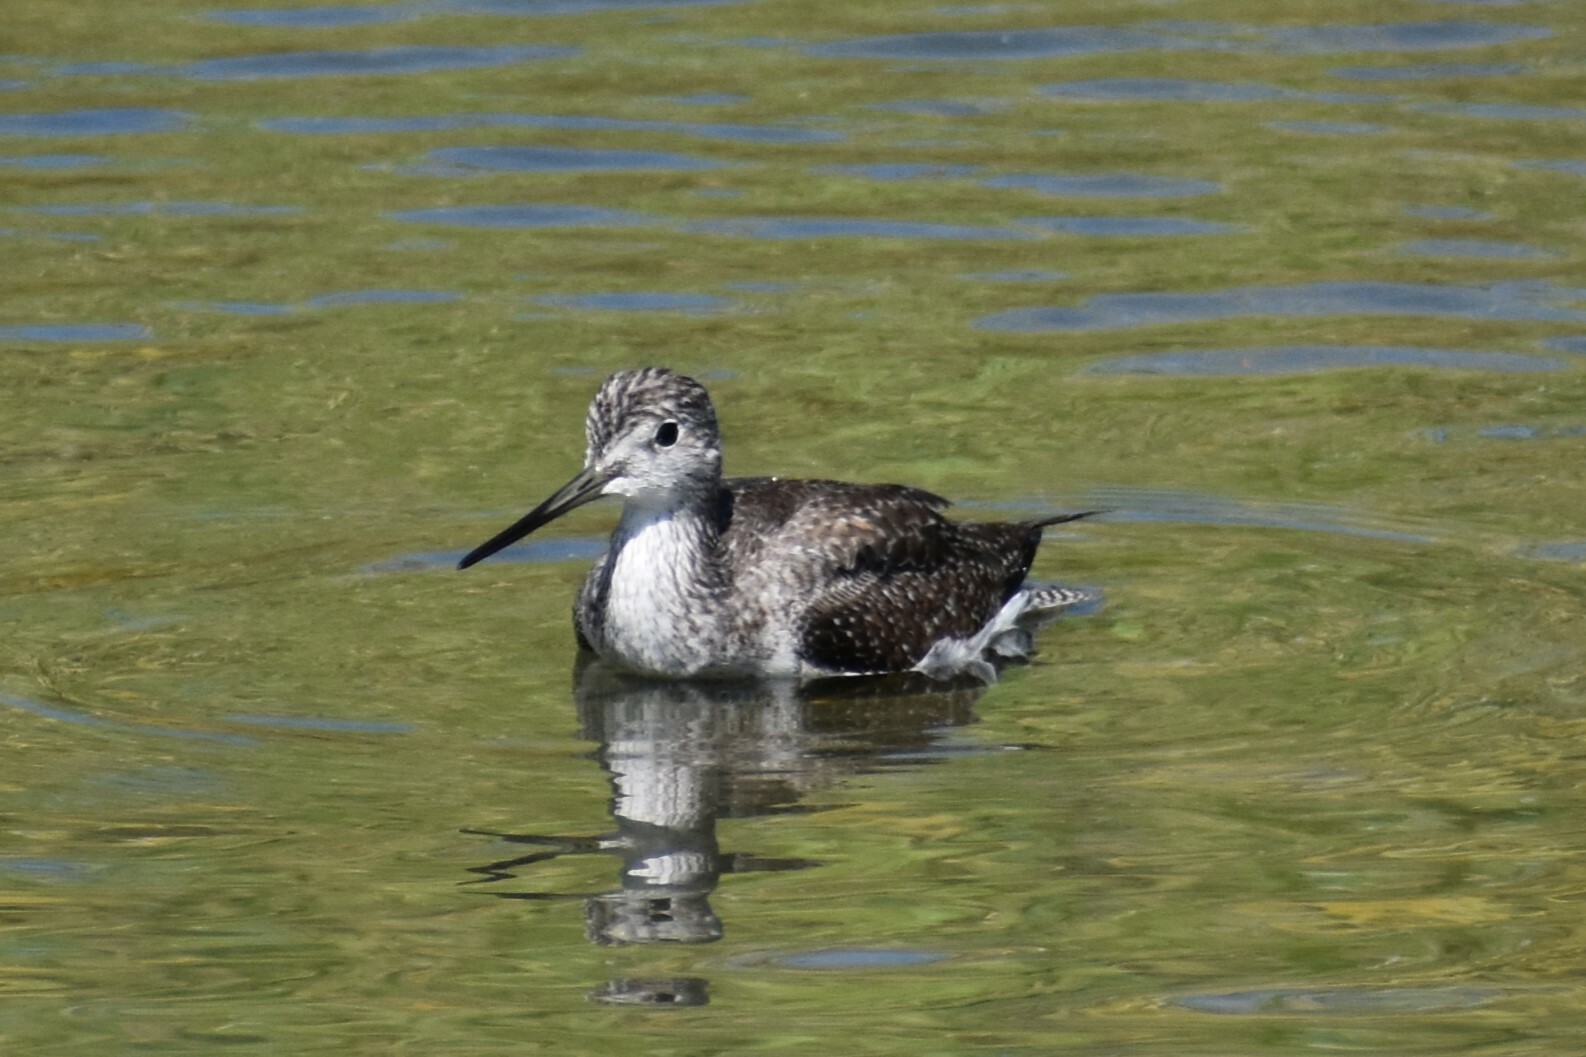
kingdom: Animalia
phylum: Chordata
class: Aves
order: Charadriiformes
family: Scolopacidae
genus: Tringa
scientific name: Tringa melanoleuca
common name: Greater yellowlegs
